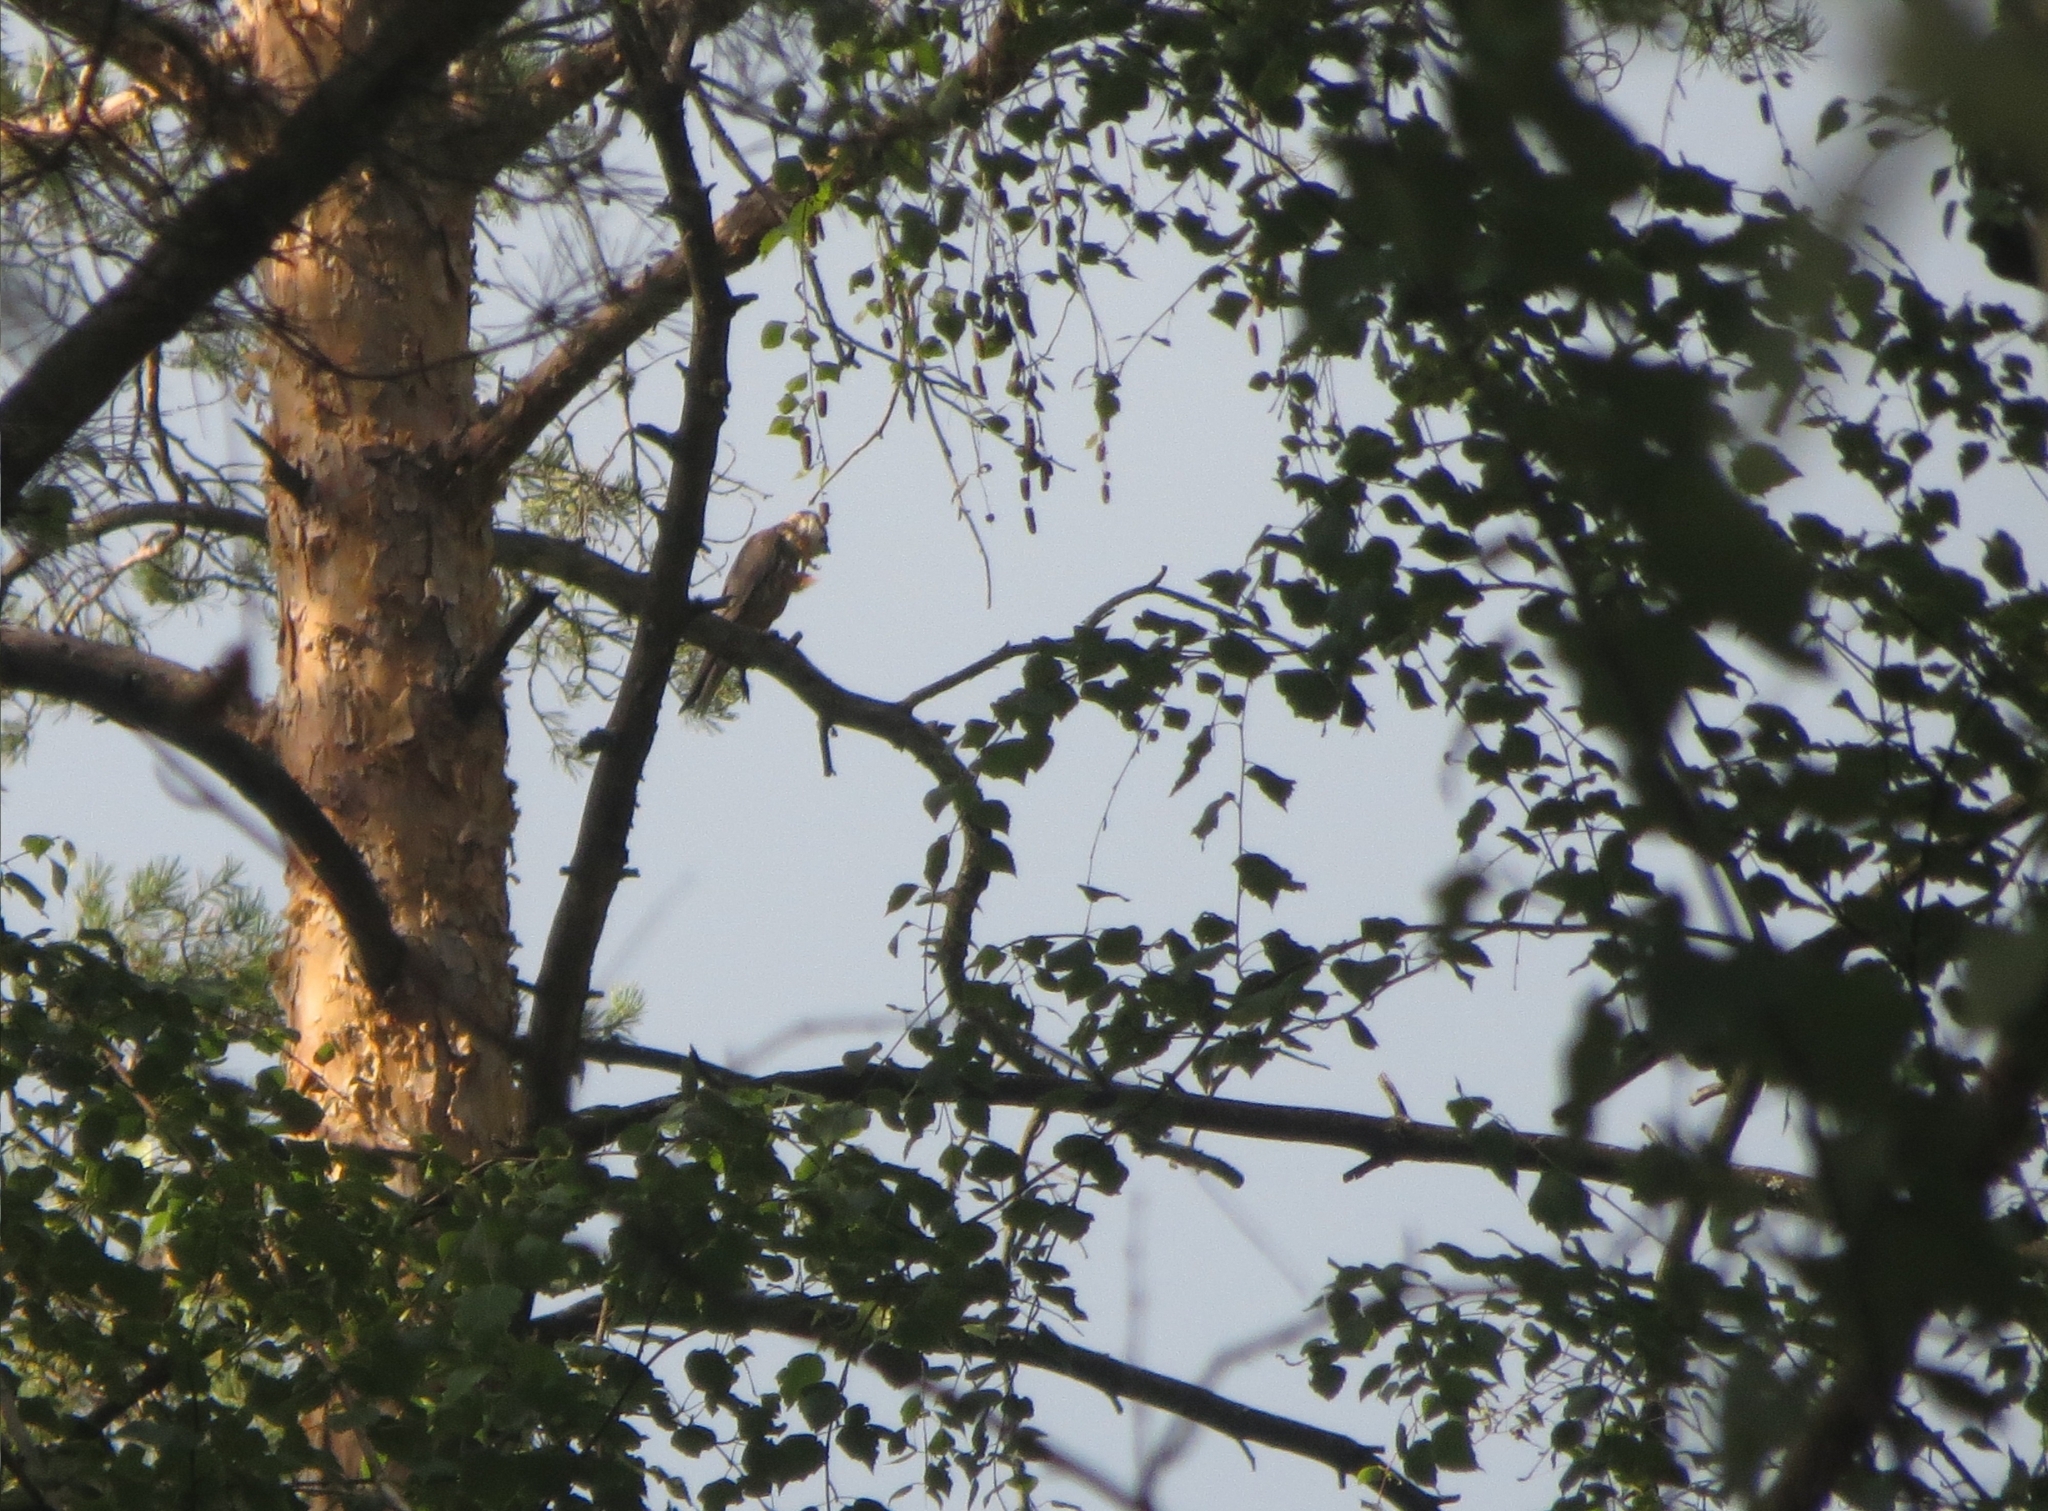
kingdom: Animalia
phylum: Chordata
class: Aves
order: Falconiformes
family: Falconidae
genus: Falco
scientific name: Falco subbuteo
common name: Eurasian hobby
